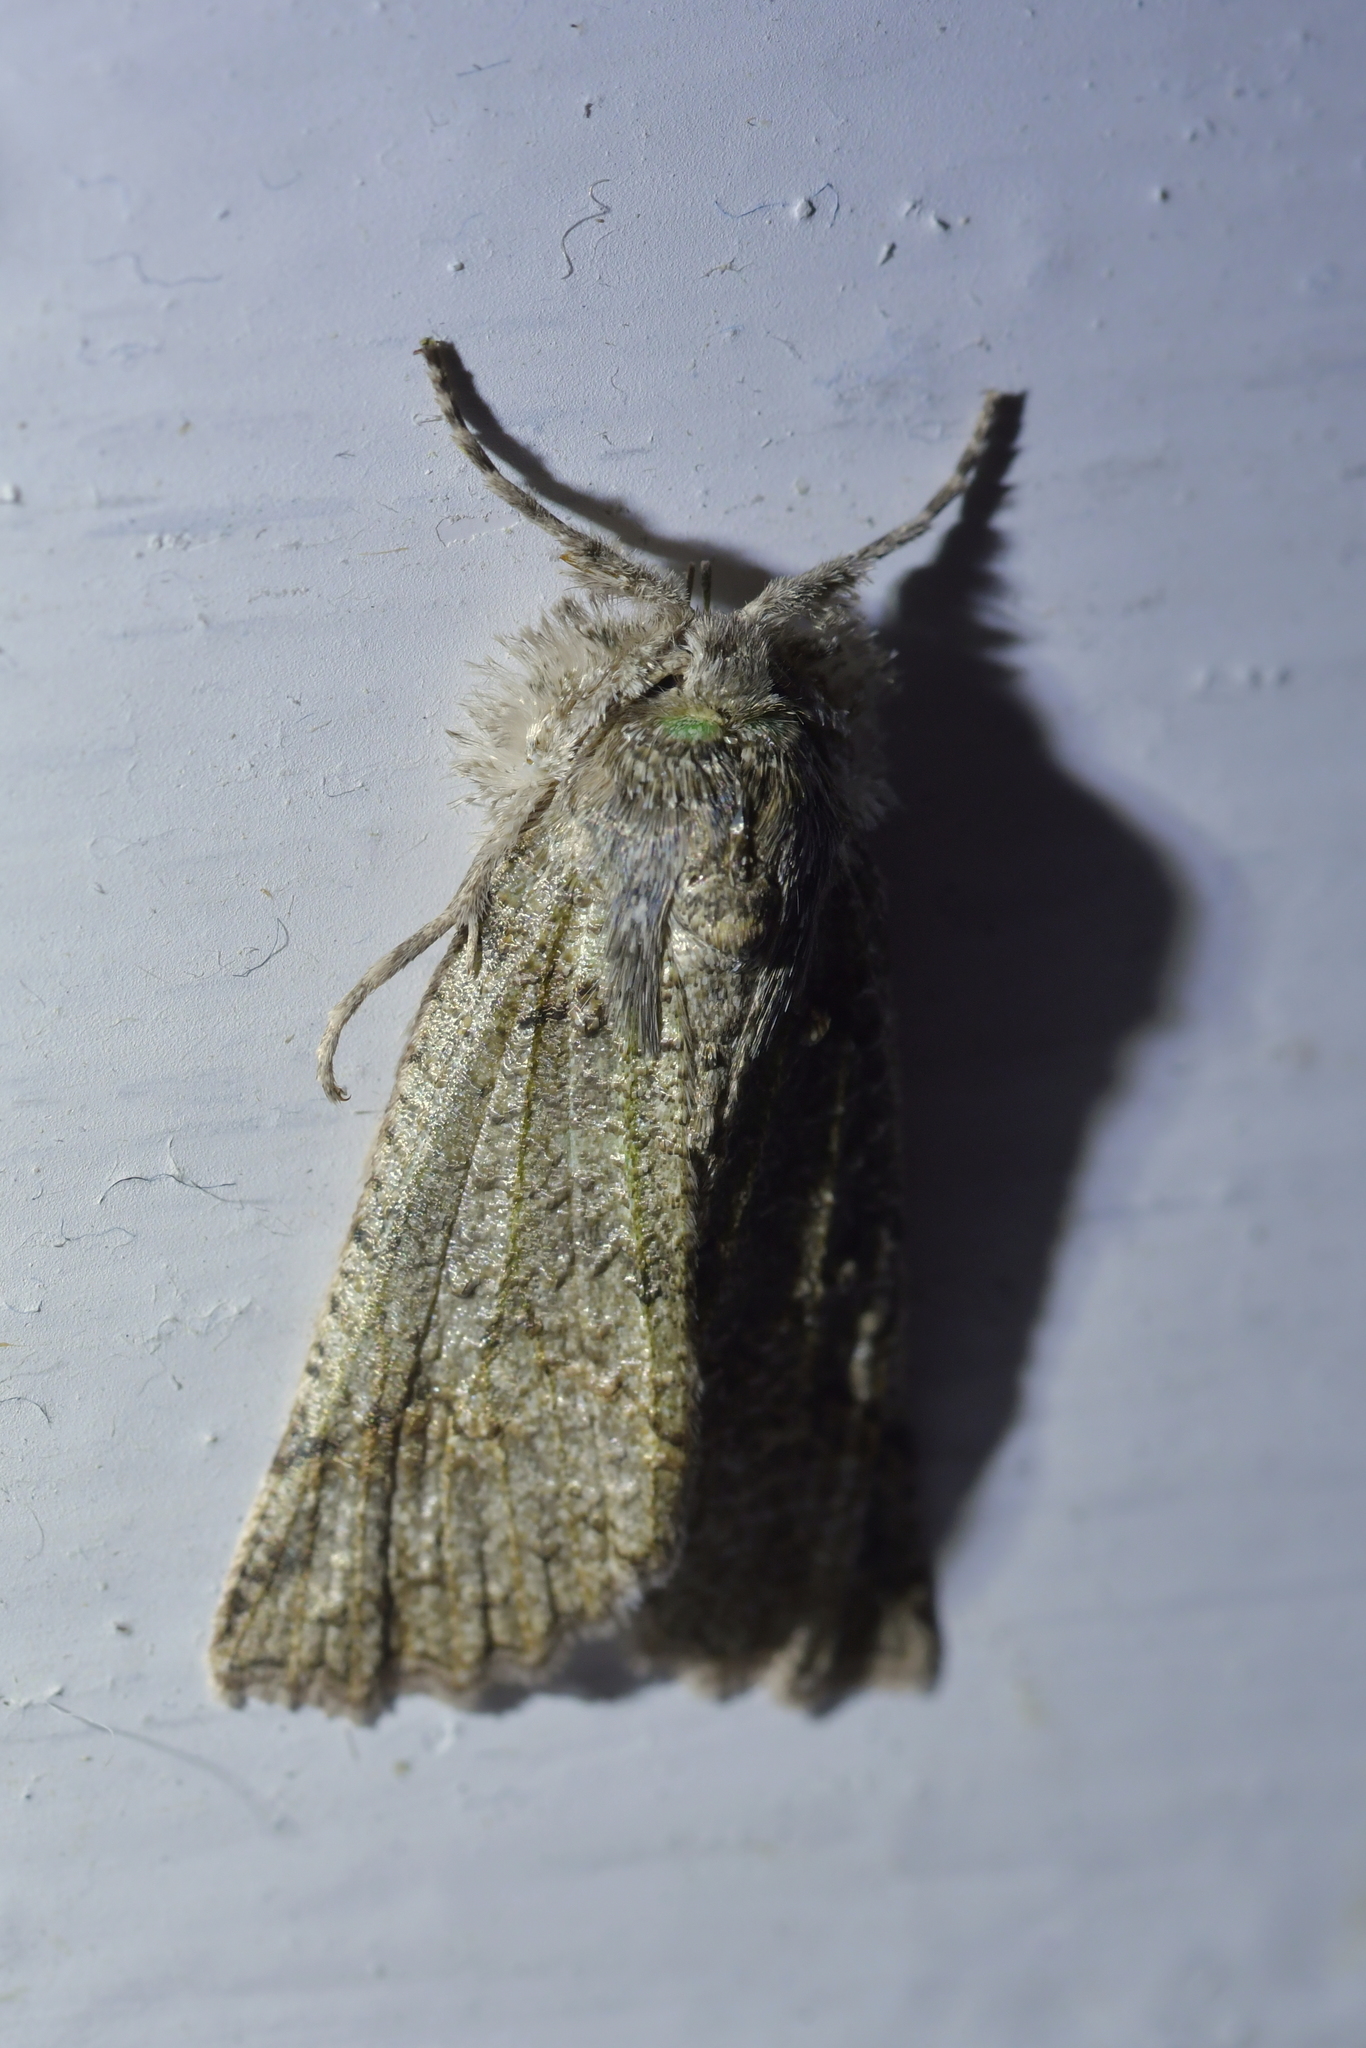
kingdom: Animalia
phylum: Arthropoda
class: Insecta
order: Lepidoptera
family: Geometridae
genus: Declana
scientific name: Declana floccosa
